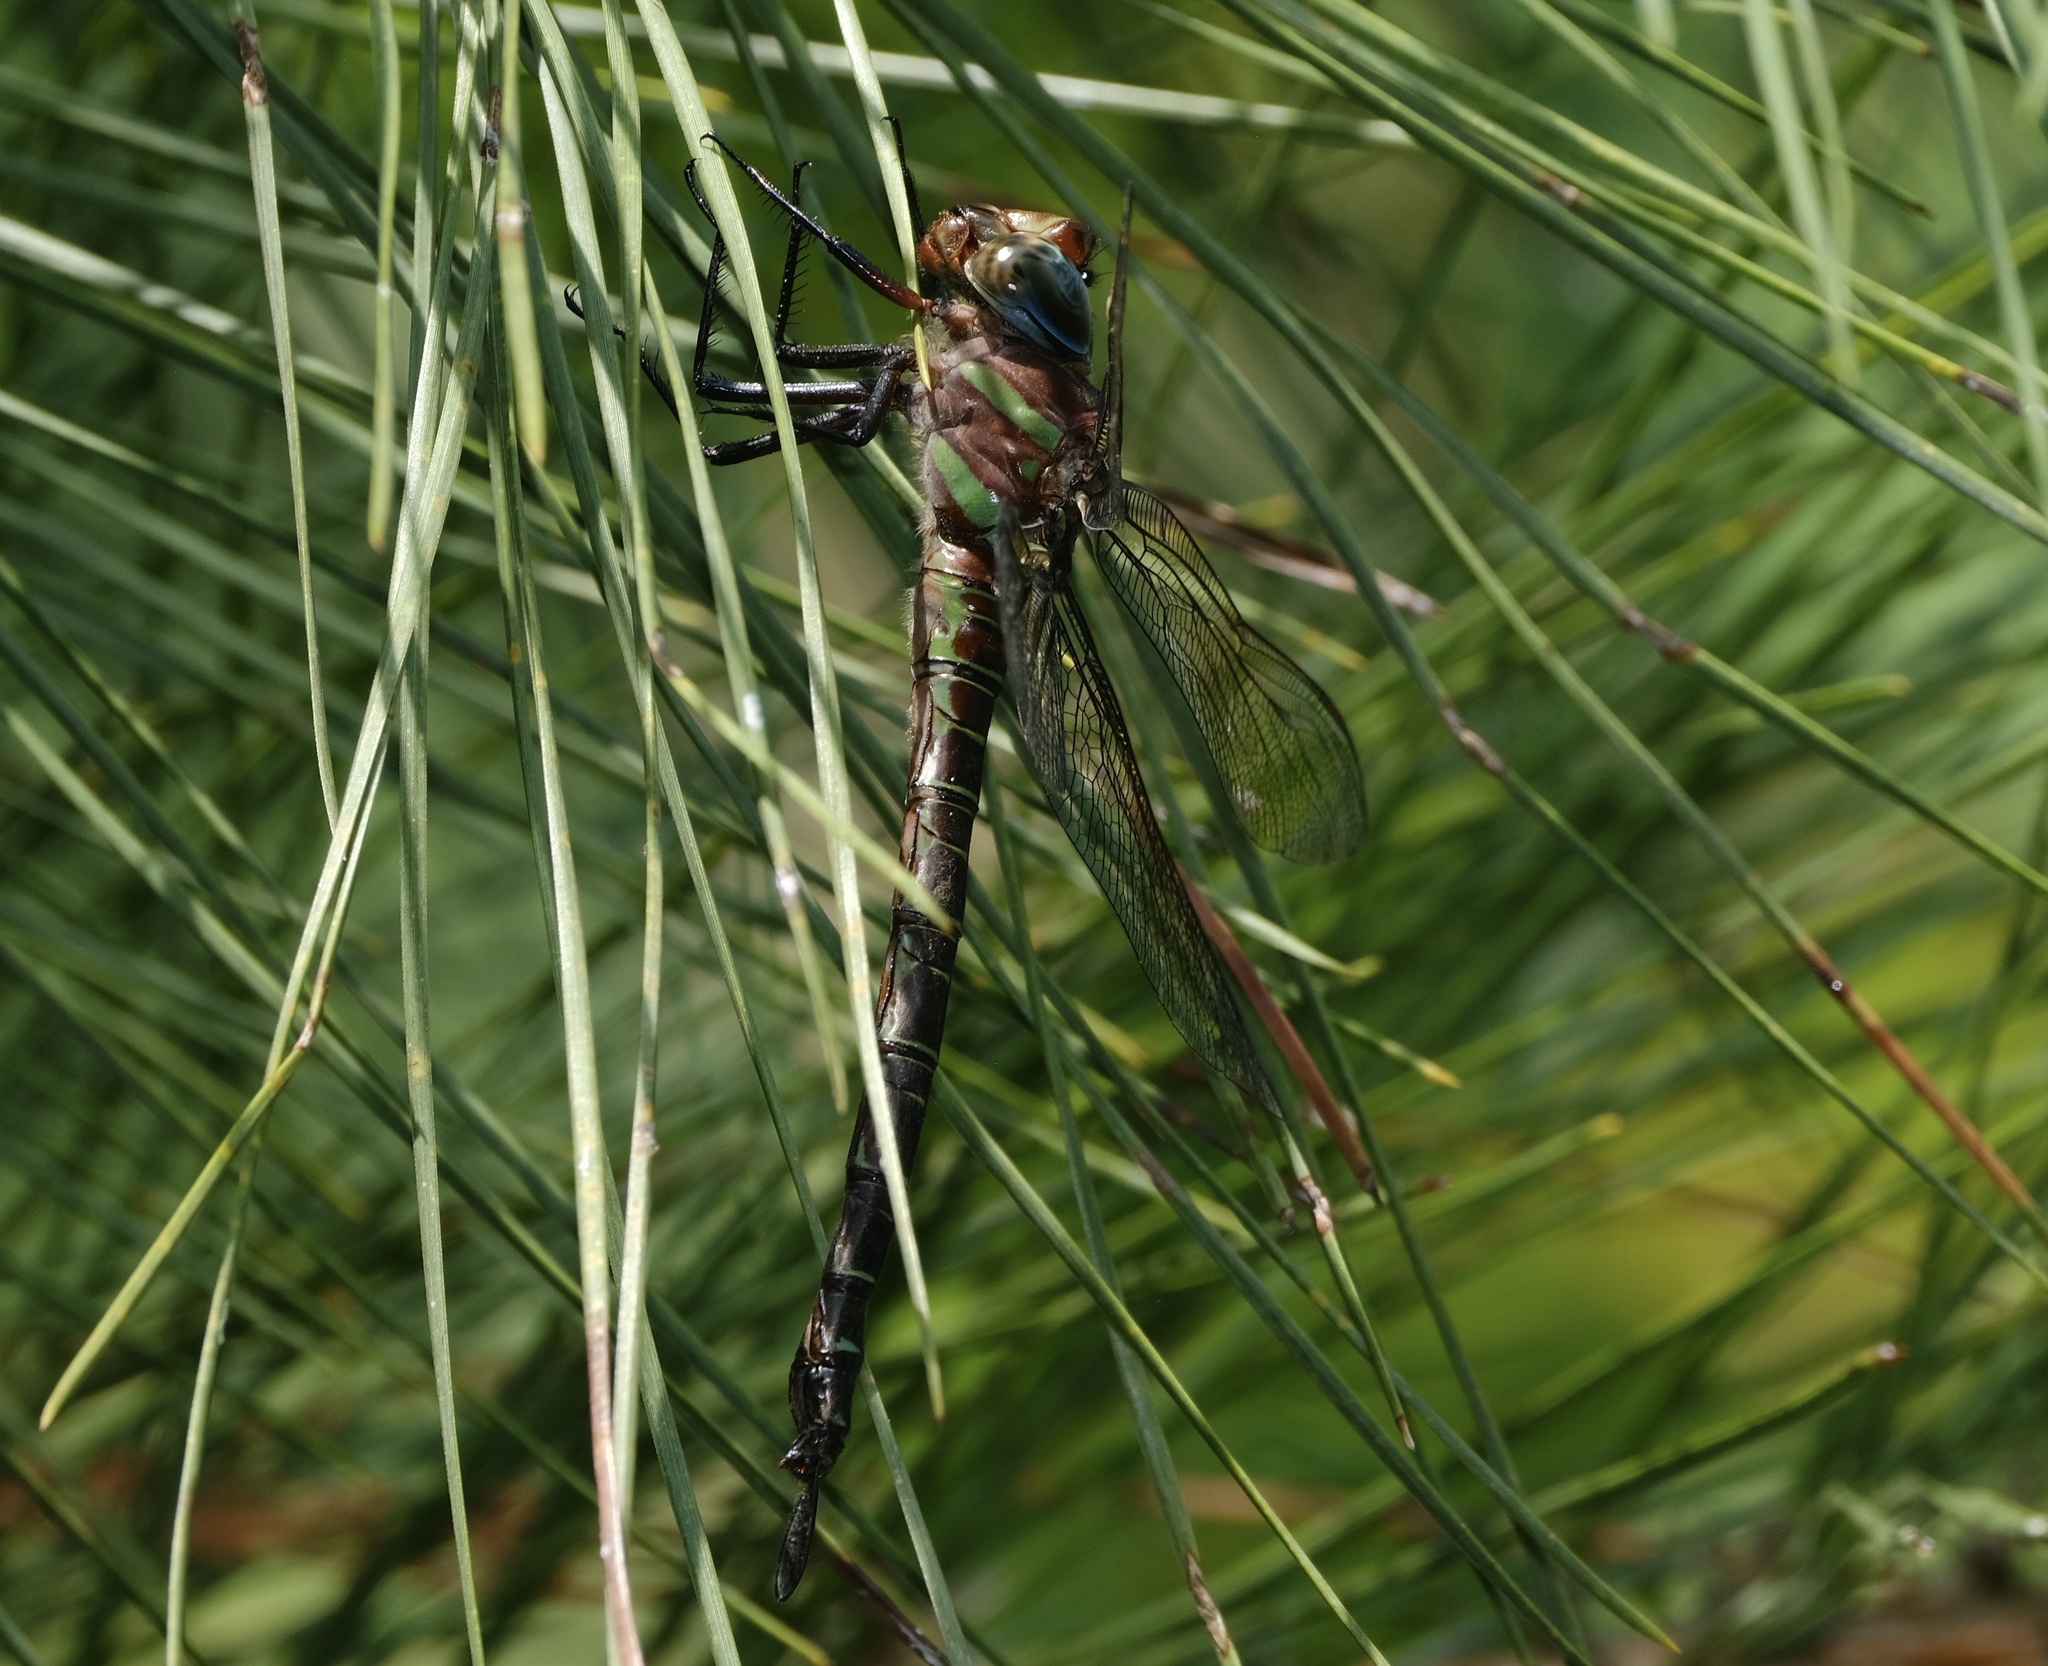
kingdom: Animalia
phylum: Arthropoda
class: Insecta
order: Odonata
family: Aeshnidae
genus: Epiaeschna
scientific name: Epiaeschna heros
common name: Swamp darner
